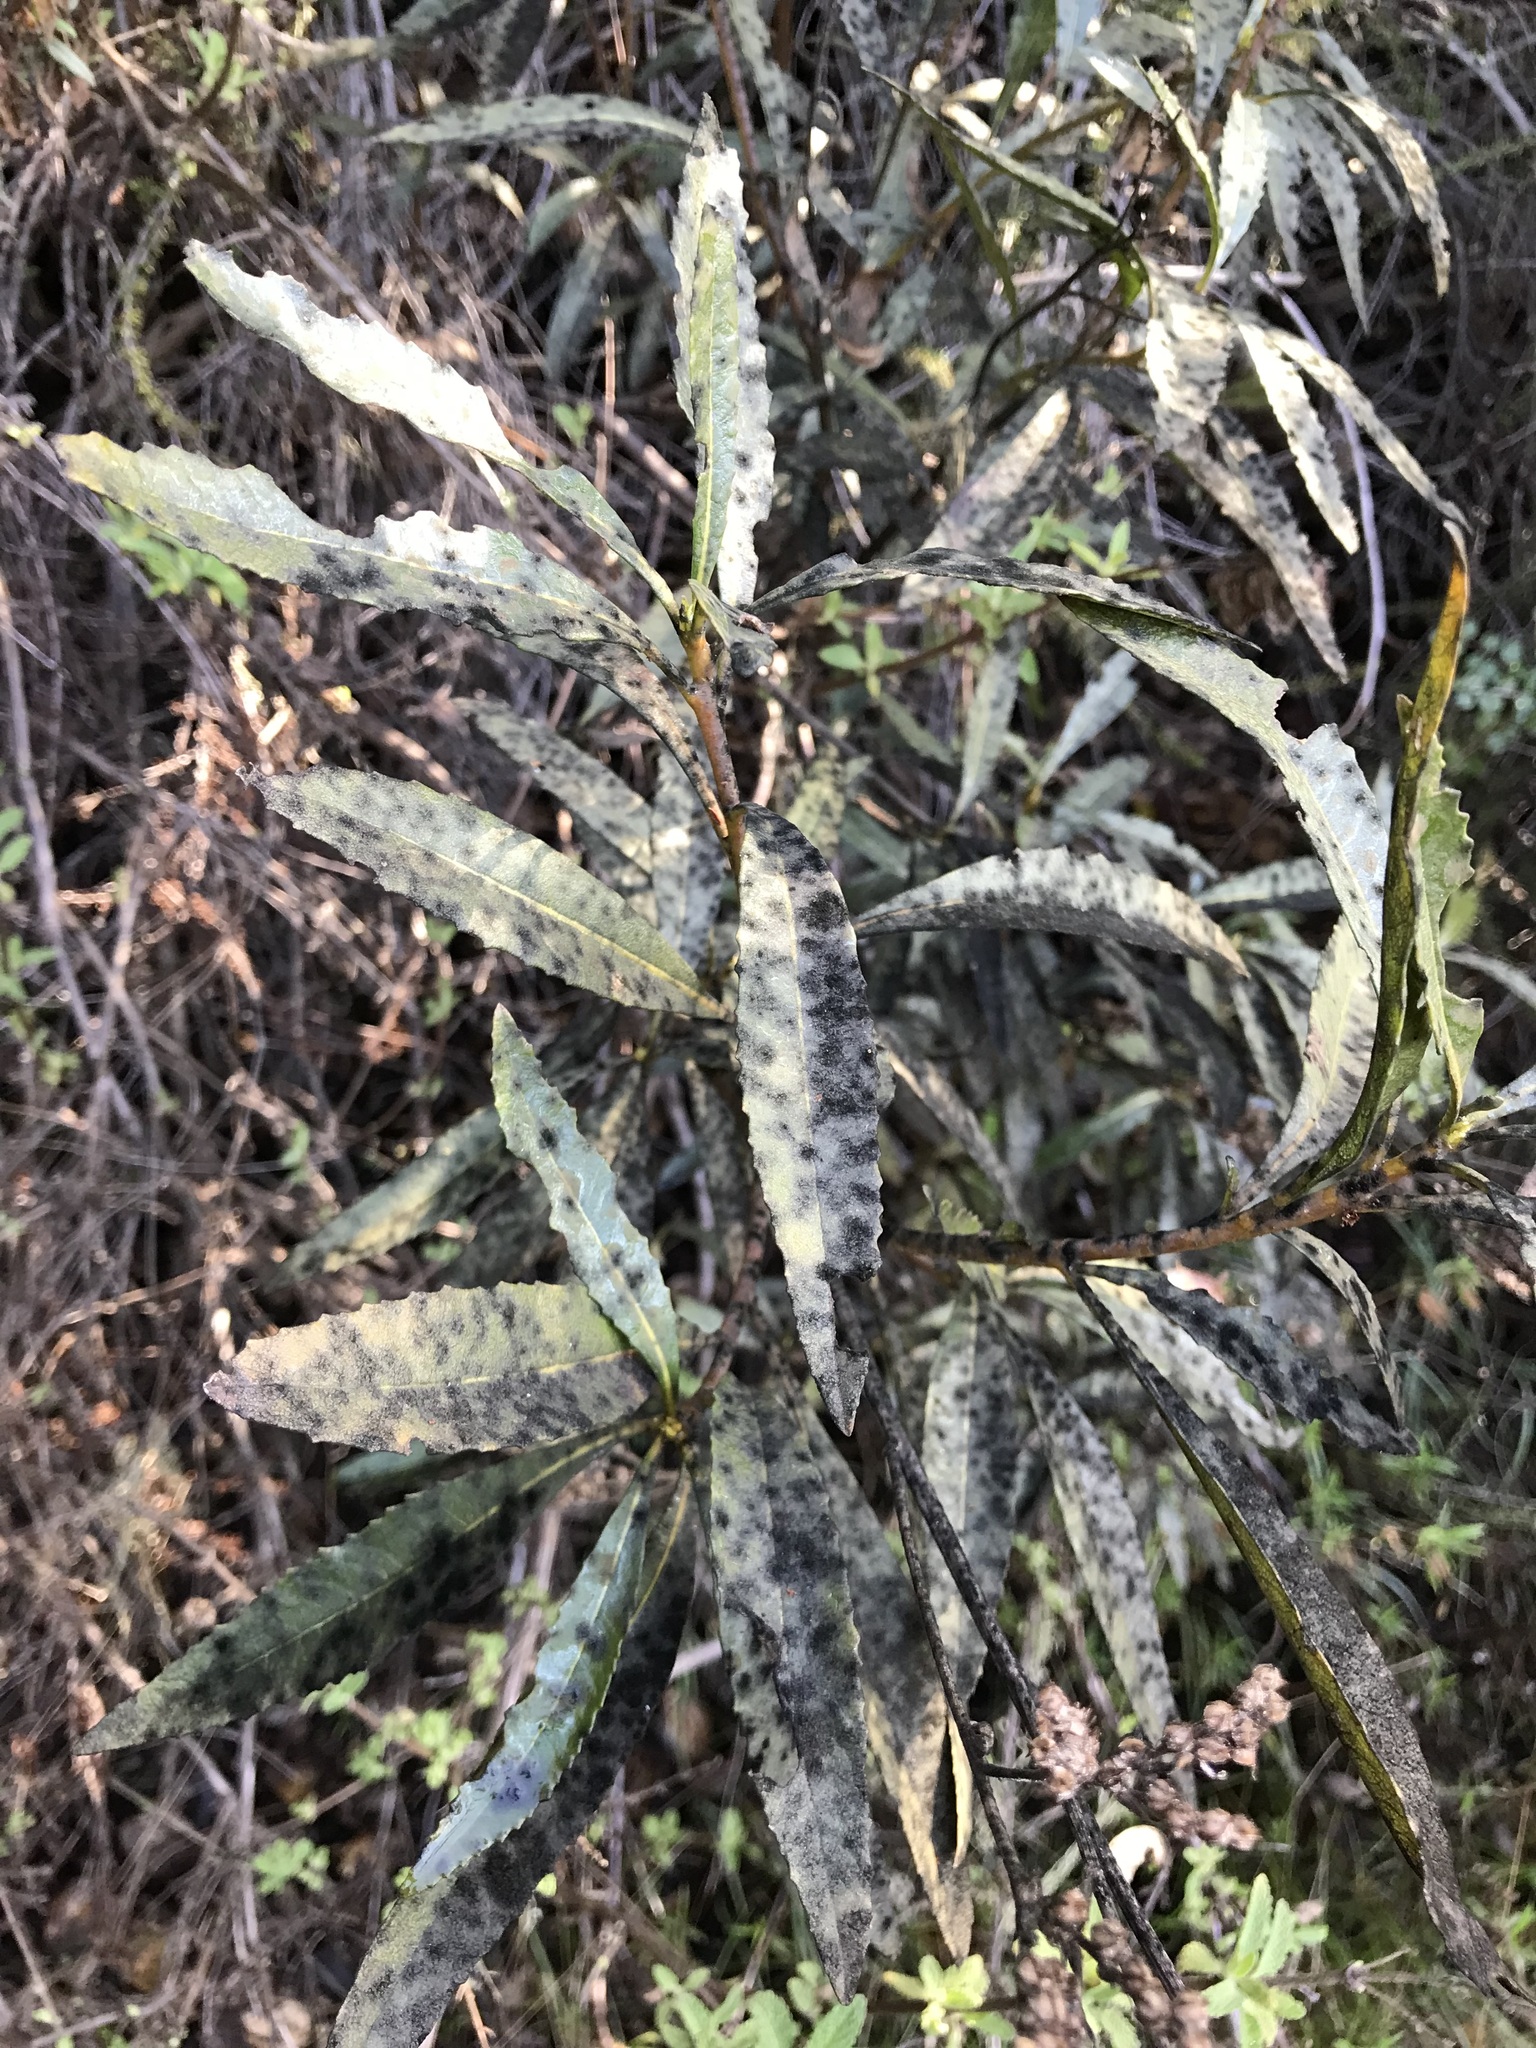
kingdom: Plantae
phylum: Tracheophyta
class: Magnoliopsida
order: Boraginales
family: Namaceae
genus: Eriodictyon
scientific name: Eriodictyon californicum
